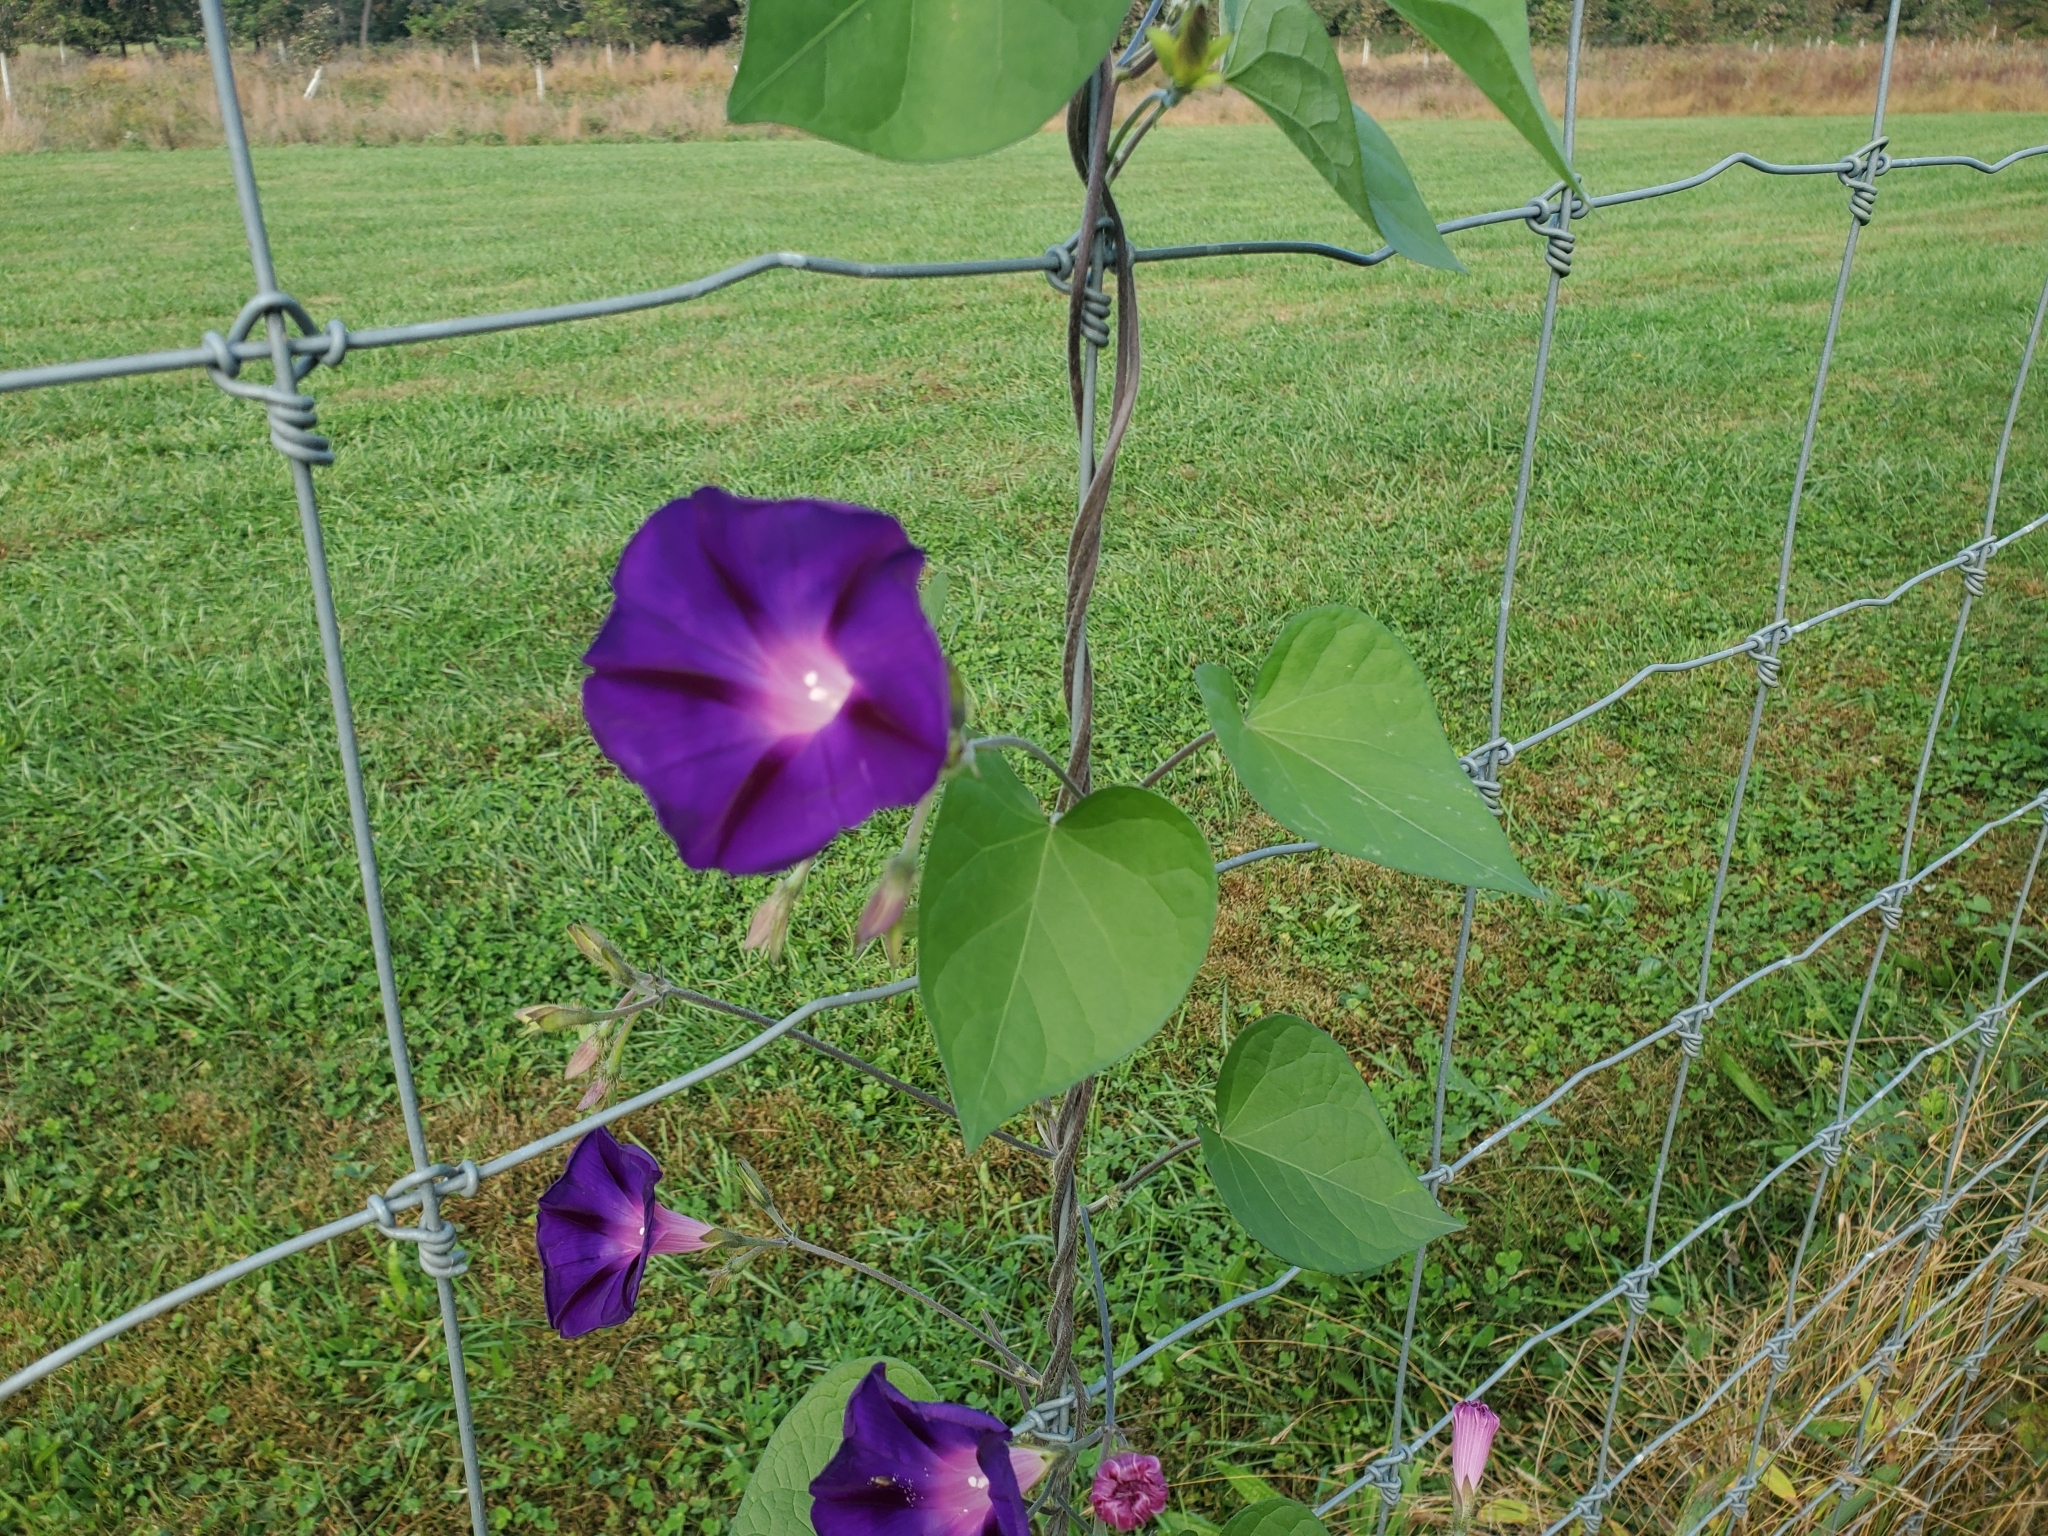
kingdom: Plantae
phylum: Tracheophyta
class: Magnoliopsida
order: Solanales
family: Convolvulaceae
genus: Ipomoea
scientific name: Ipomoea purpurea
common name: Common morning-glory
